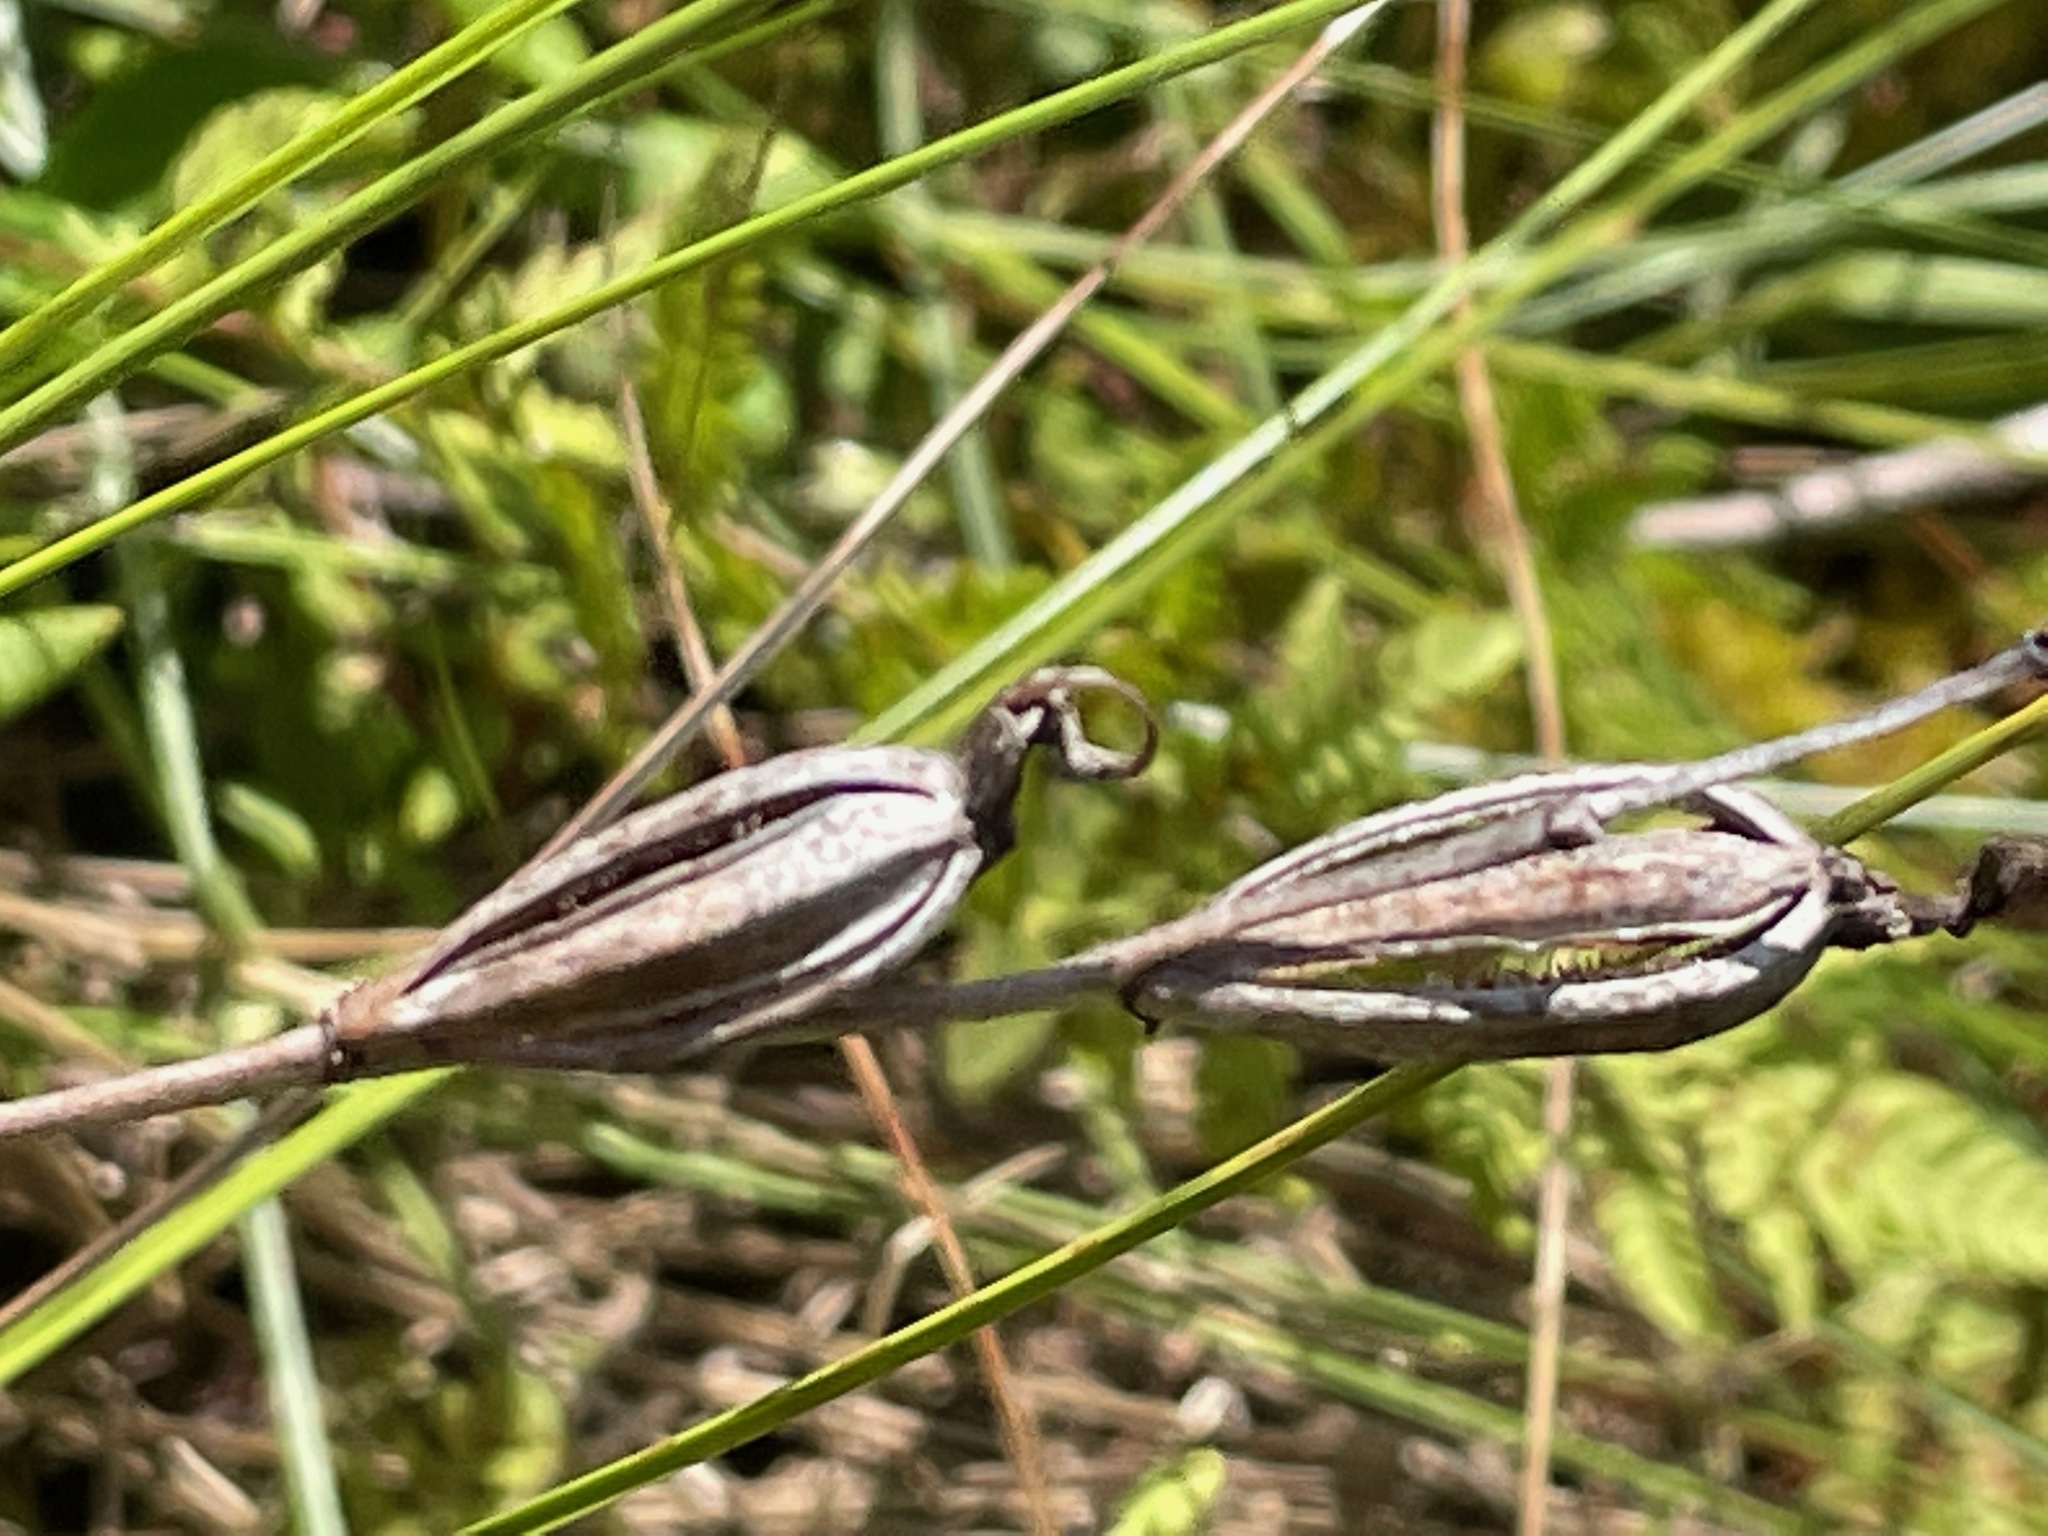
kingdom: Plantae
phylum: Tracheophyta
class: Liliopsida
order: Asparagales
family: Orchidaceae
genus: Calopogon
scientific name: Calopogon tuberosus
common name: Grass-pink
